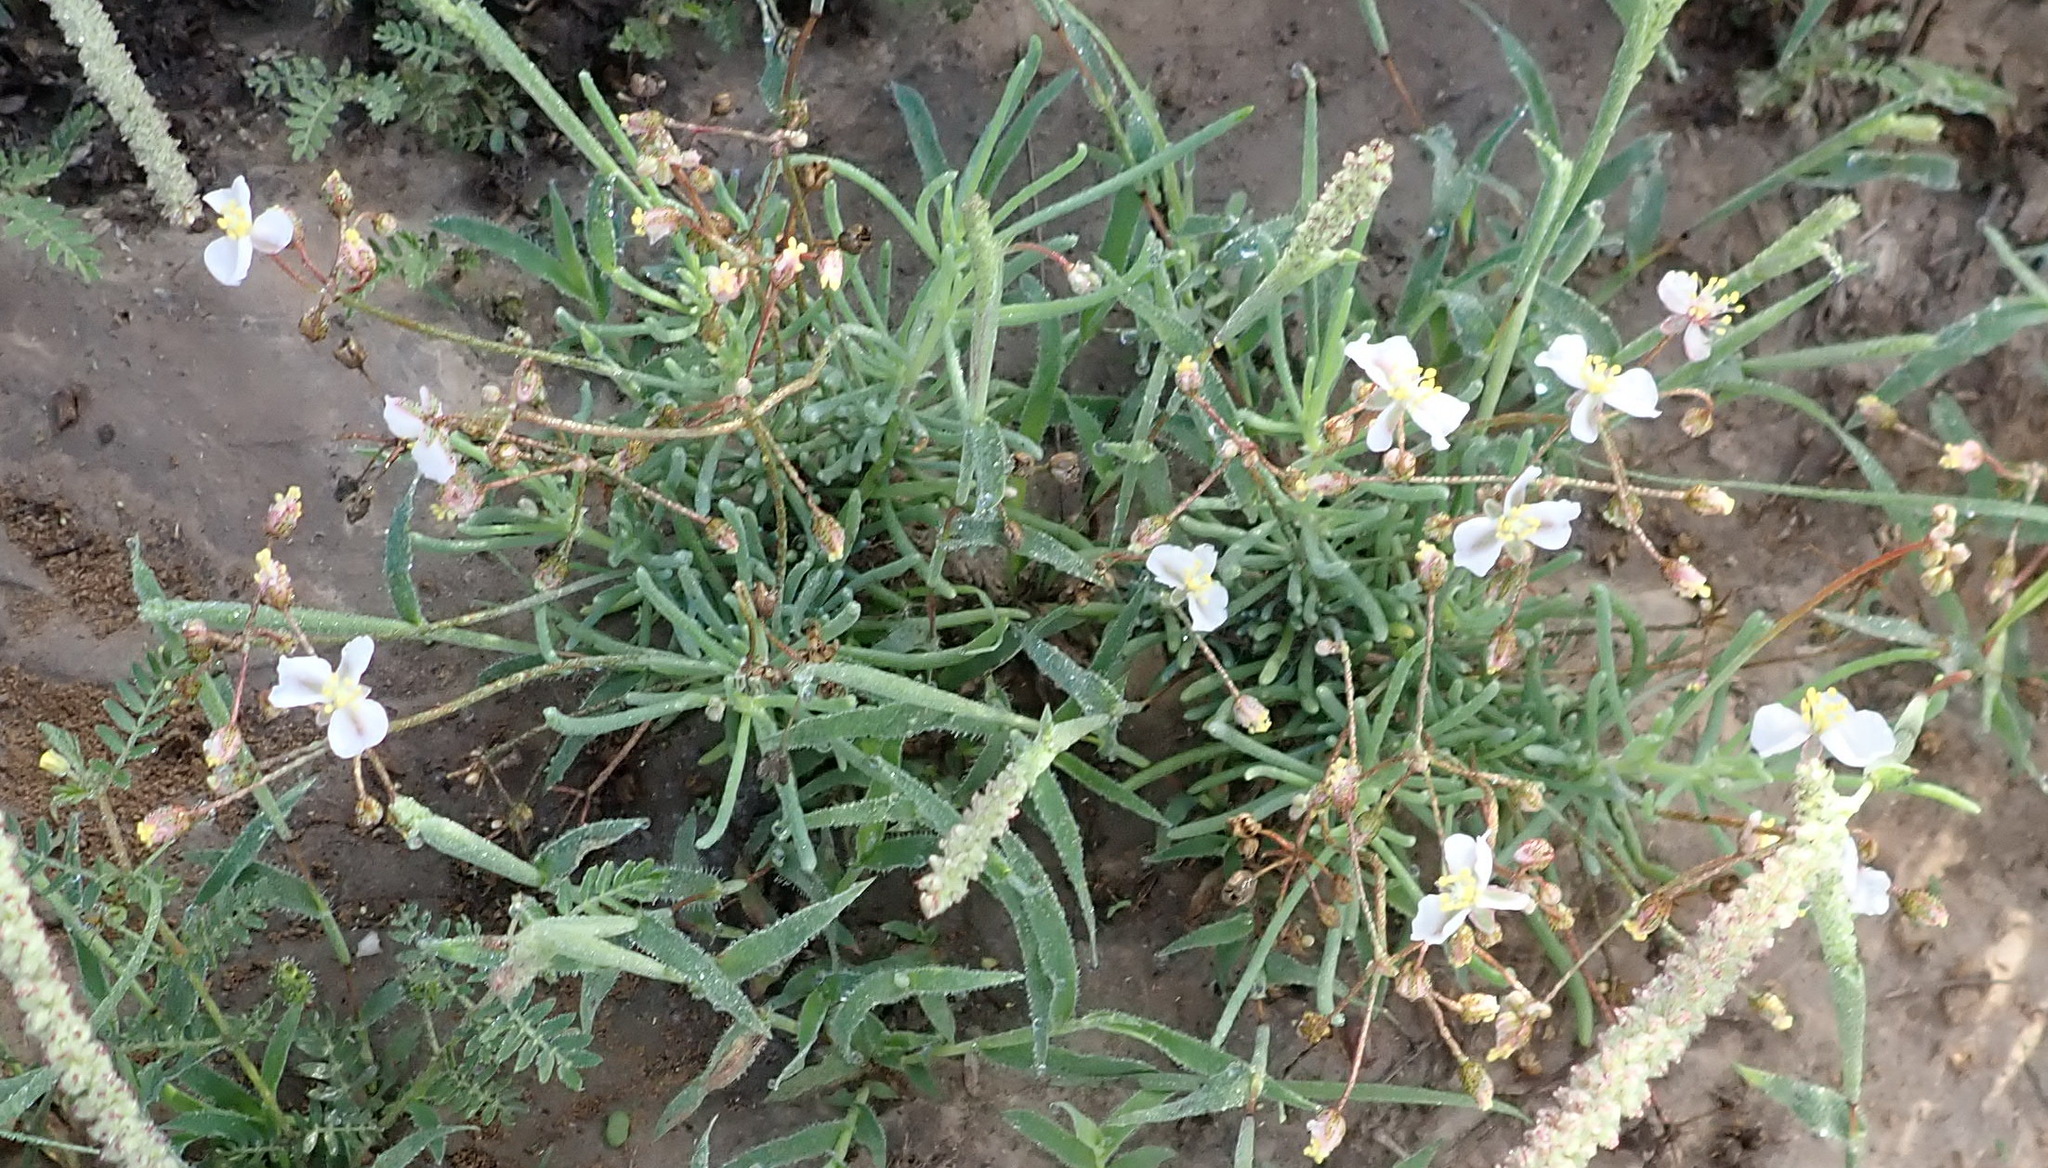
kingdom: Plantae
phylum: Tracheophyta
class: Magnoliopsida
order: Caryophyllales
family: Kewaceae
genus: Kewa
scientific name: Kewa salsoloides
